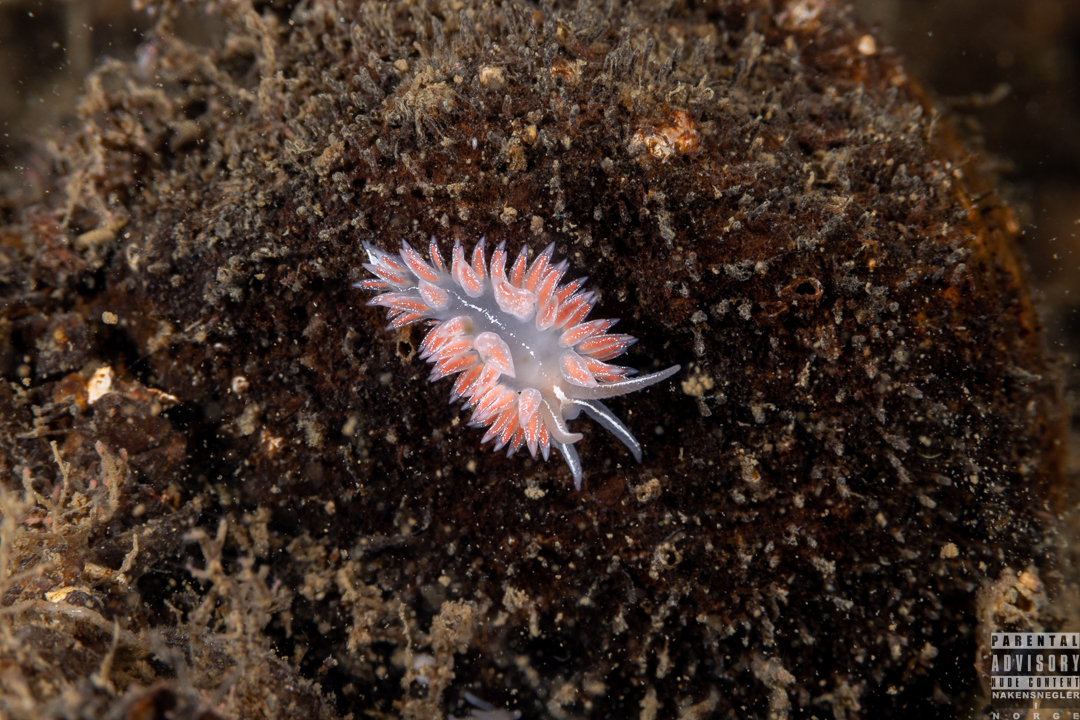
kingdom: Animalia
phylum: Mollusca
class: Gastropoda
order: Nudibranchia
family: Coryphellidae
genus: Coryphella
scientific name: Coryphella chriskaugei
